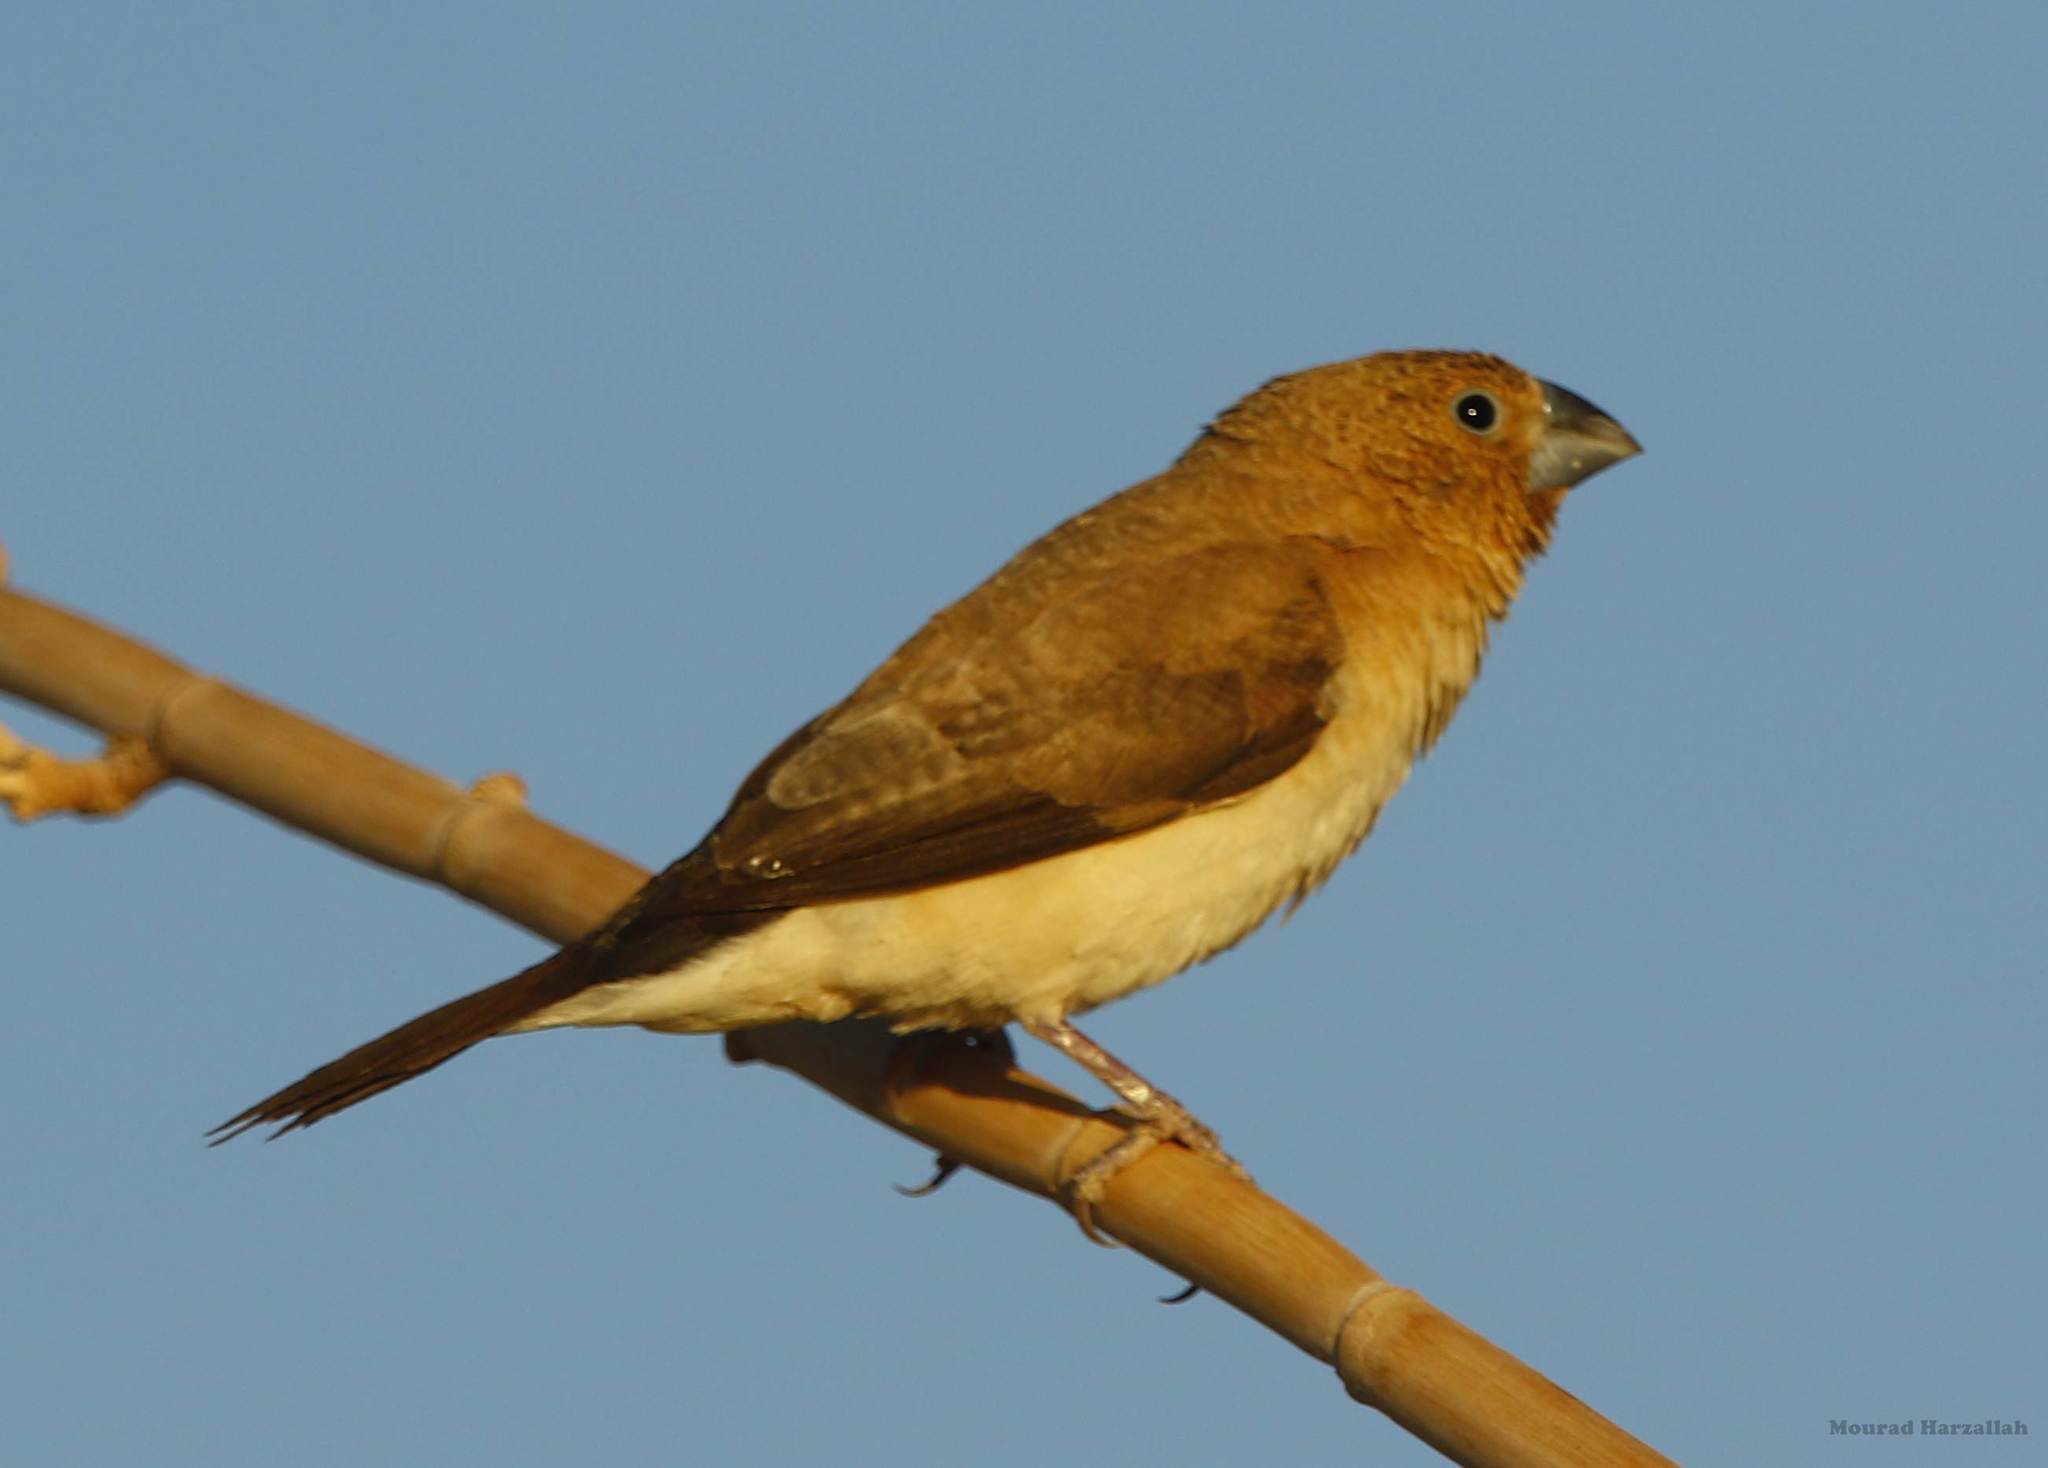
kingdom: Animalia
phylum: Chordata
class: Aves
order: Passeriformes
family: Estrildidae
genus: Euodice
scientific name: Euodice cantans
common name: African silverbill
